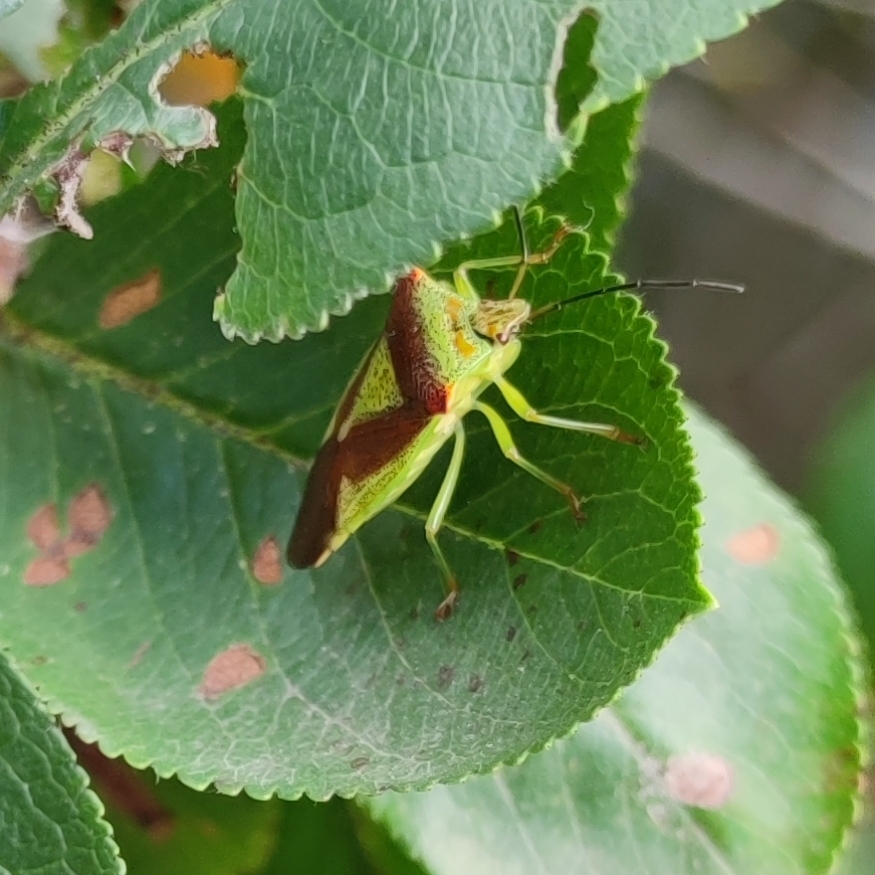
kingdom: Animalia
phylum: Arthropoda
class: Insecta
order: Hemiptera
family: Acanthosomatidae
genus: Acanthosoma
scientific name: Acanthosoma haemorrhoidale
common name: Hawthorn shieldbug
